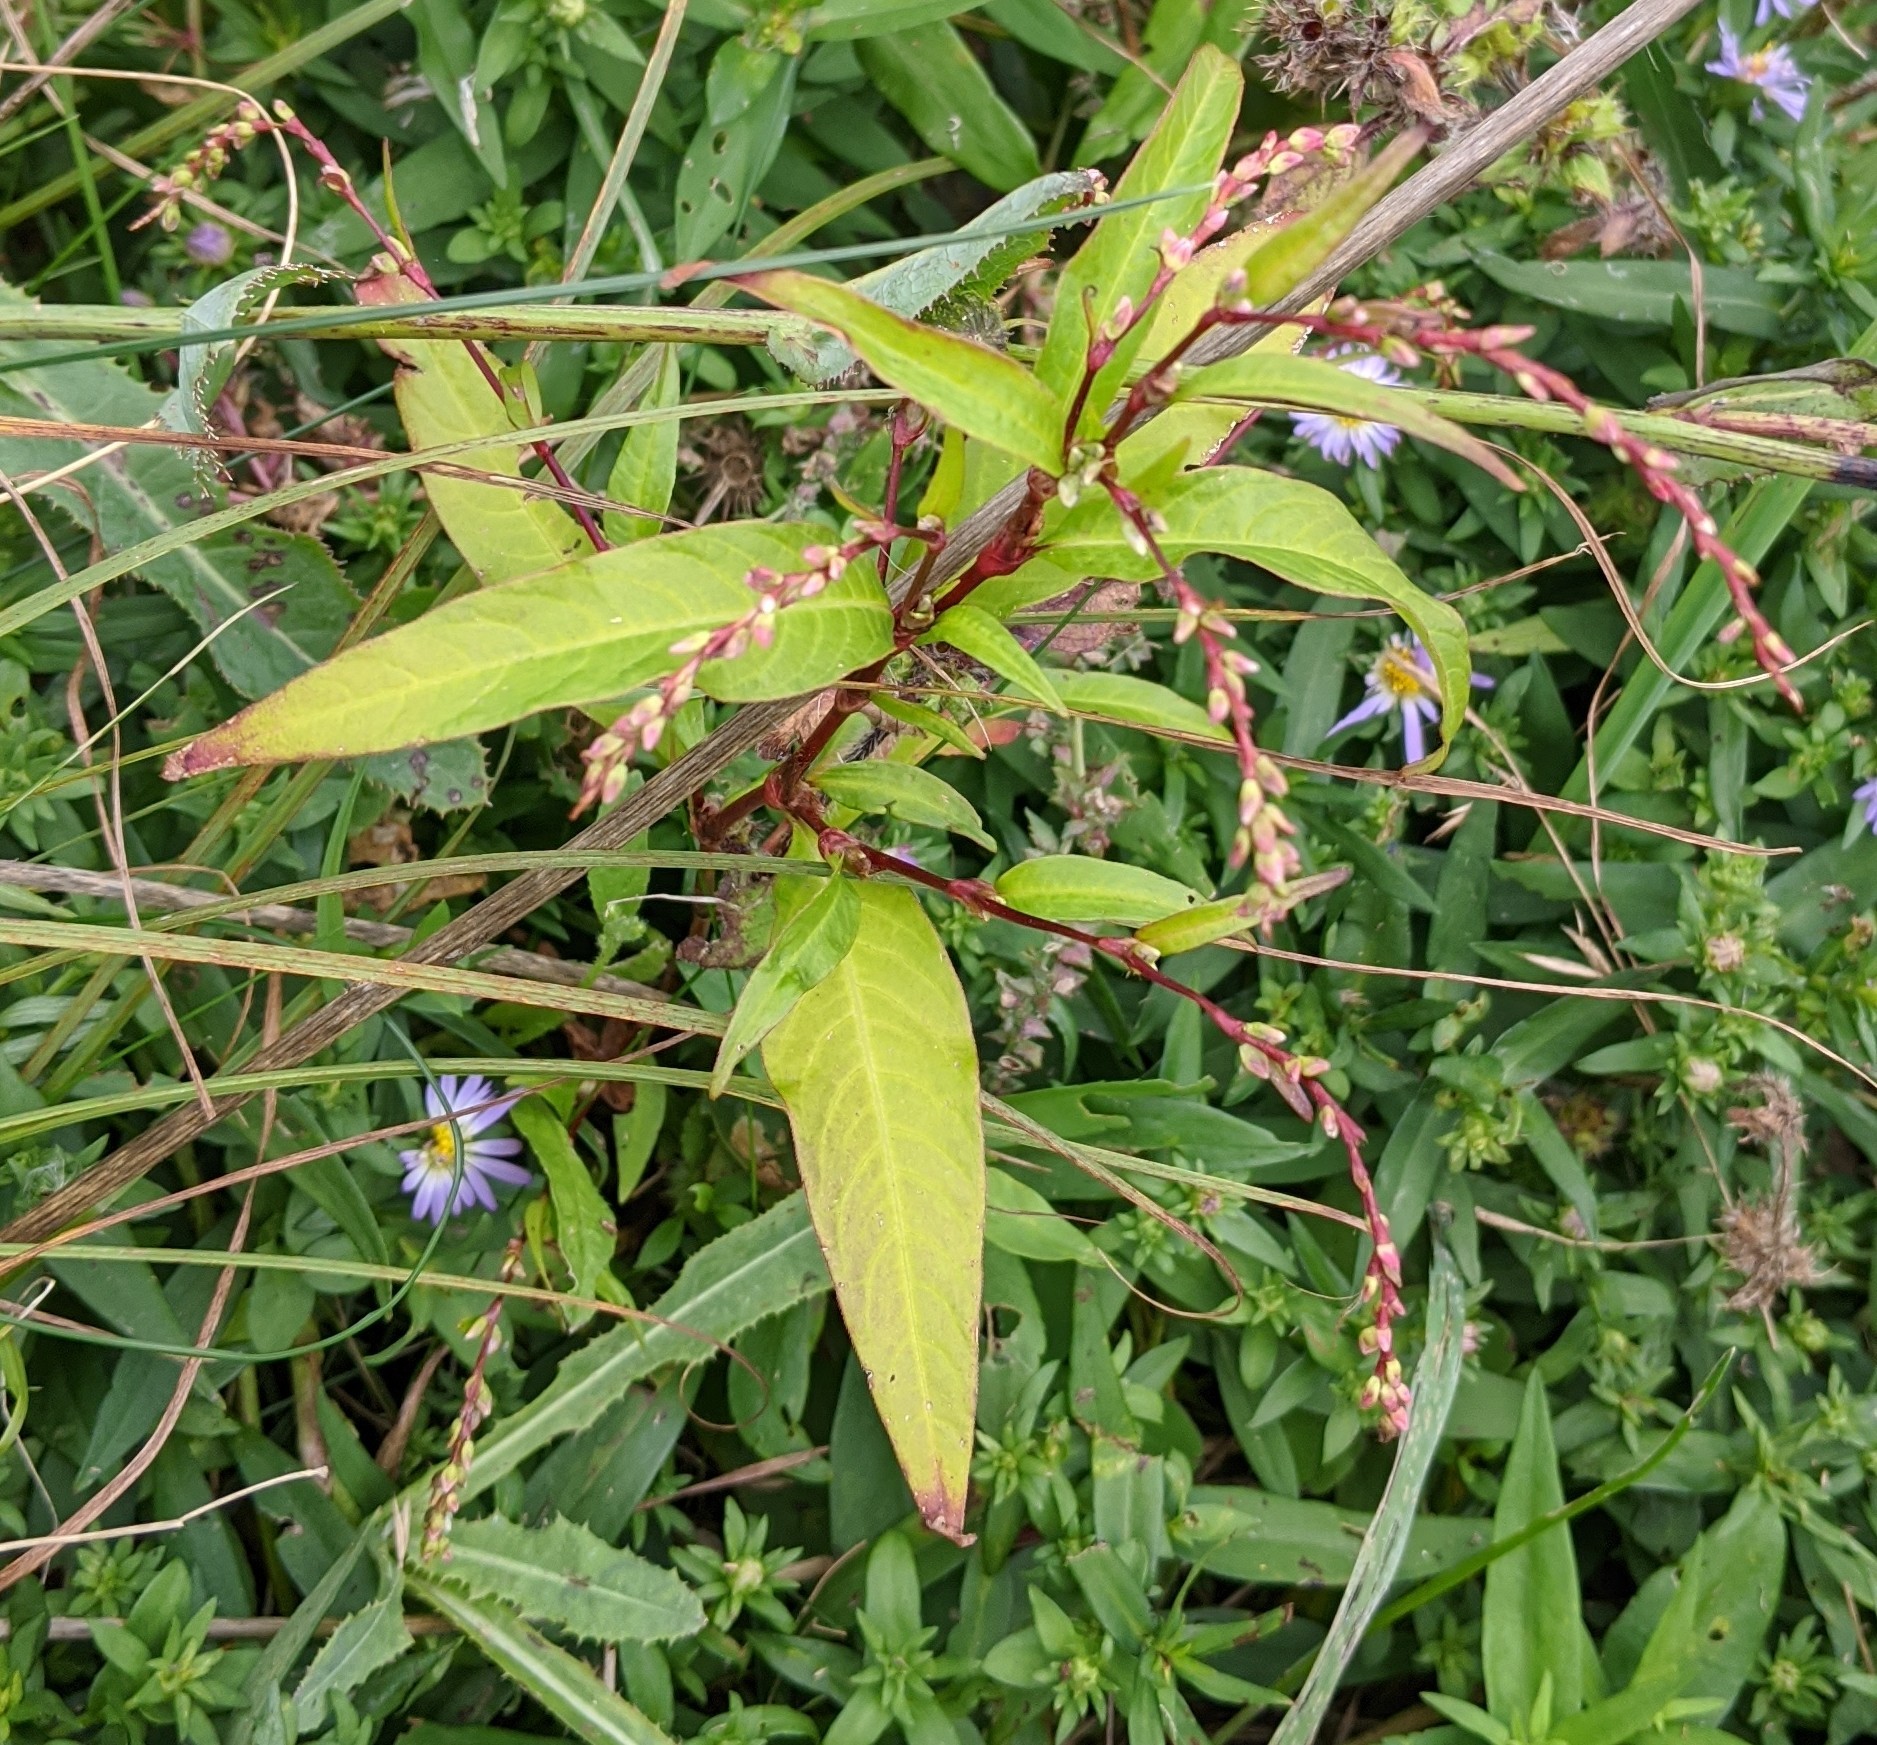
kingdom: Plantae
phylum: Tracheophyta
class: Magnoliopsida
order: Caryophyllales
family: Polygonaceae
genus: Persicaria
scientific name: Persicaria hydropiper
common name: Water-pepper
